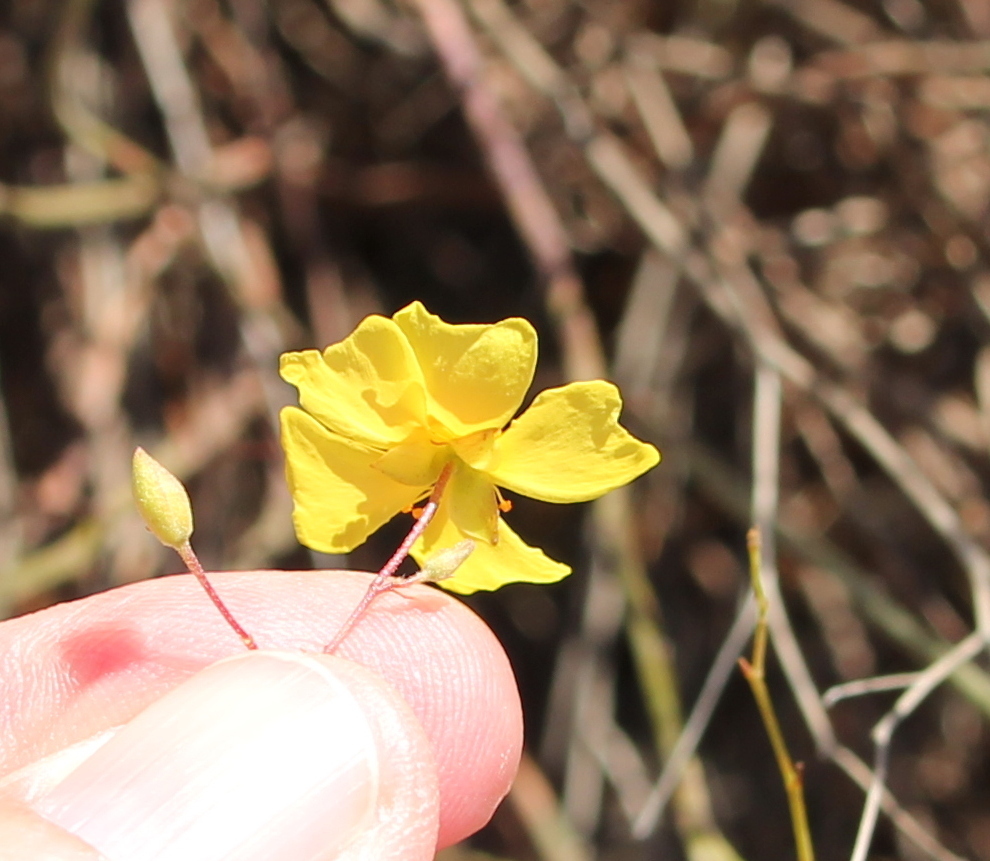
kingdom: Plantae
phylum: Tracheophyta
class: Magnoliopsida
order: Malvales
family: Cistaceae
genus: Crocanthemum
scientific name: Crocanthemum scoparium
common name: Broom-rose
